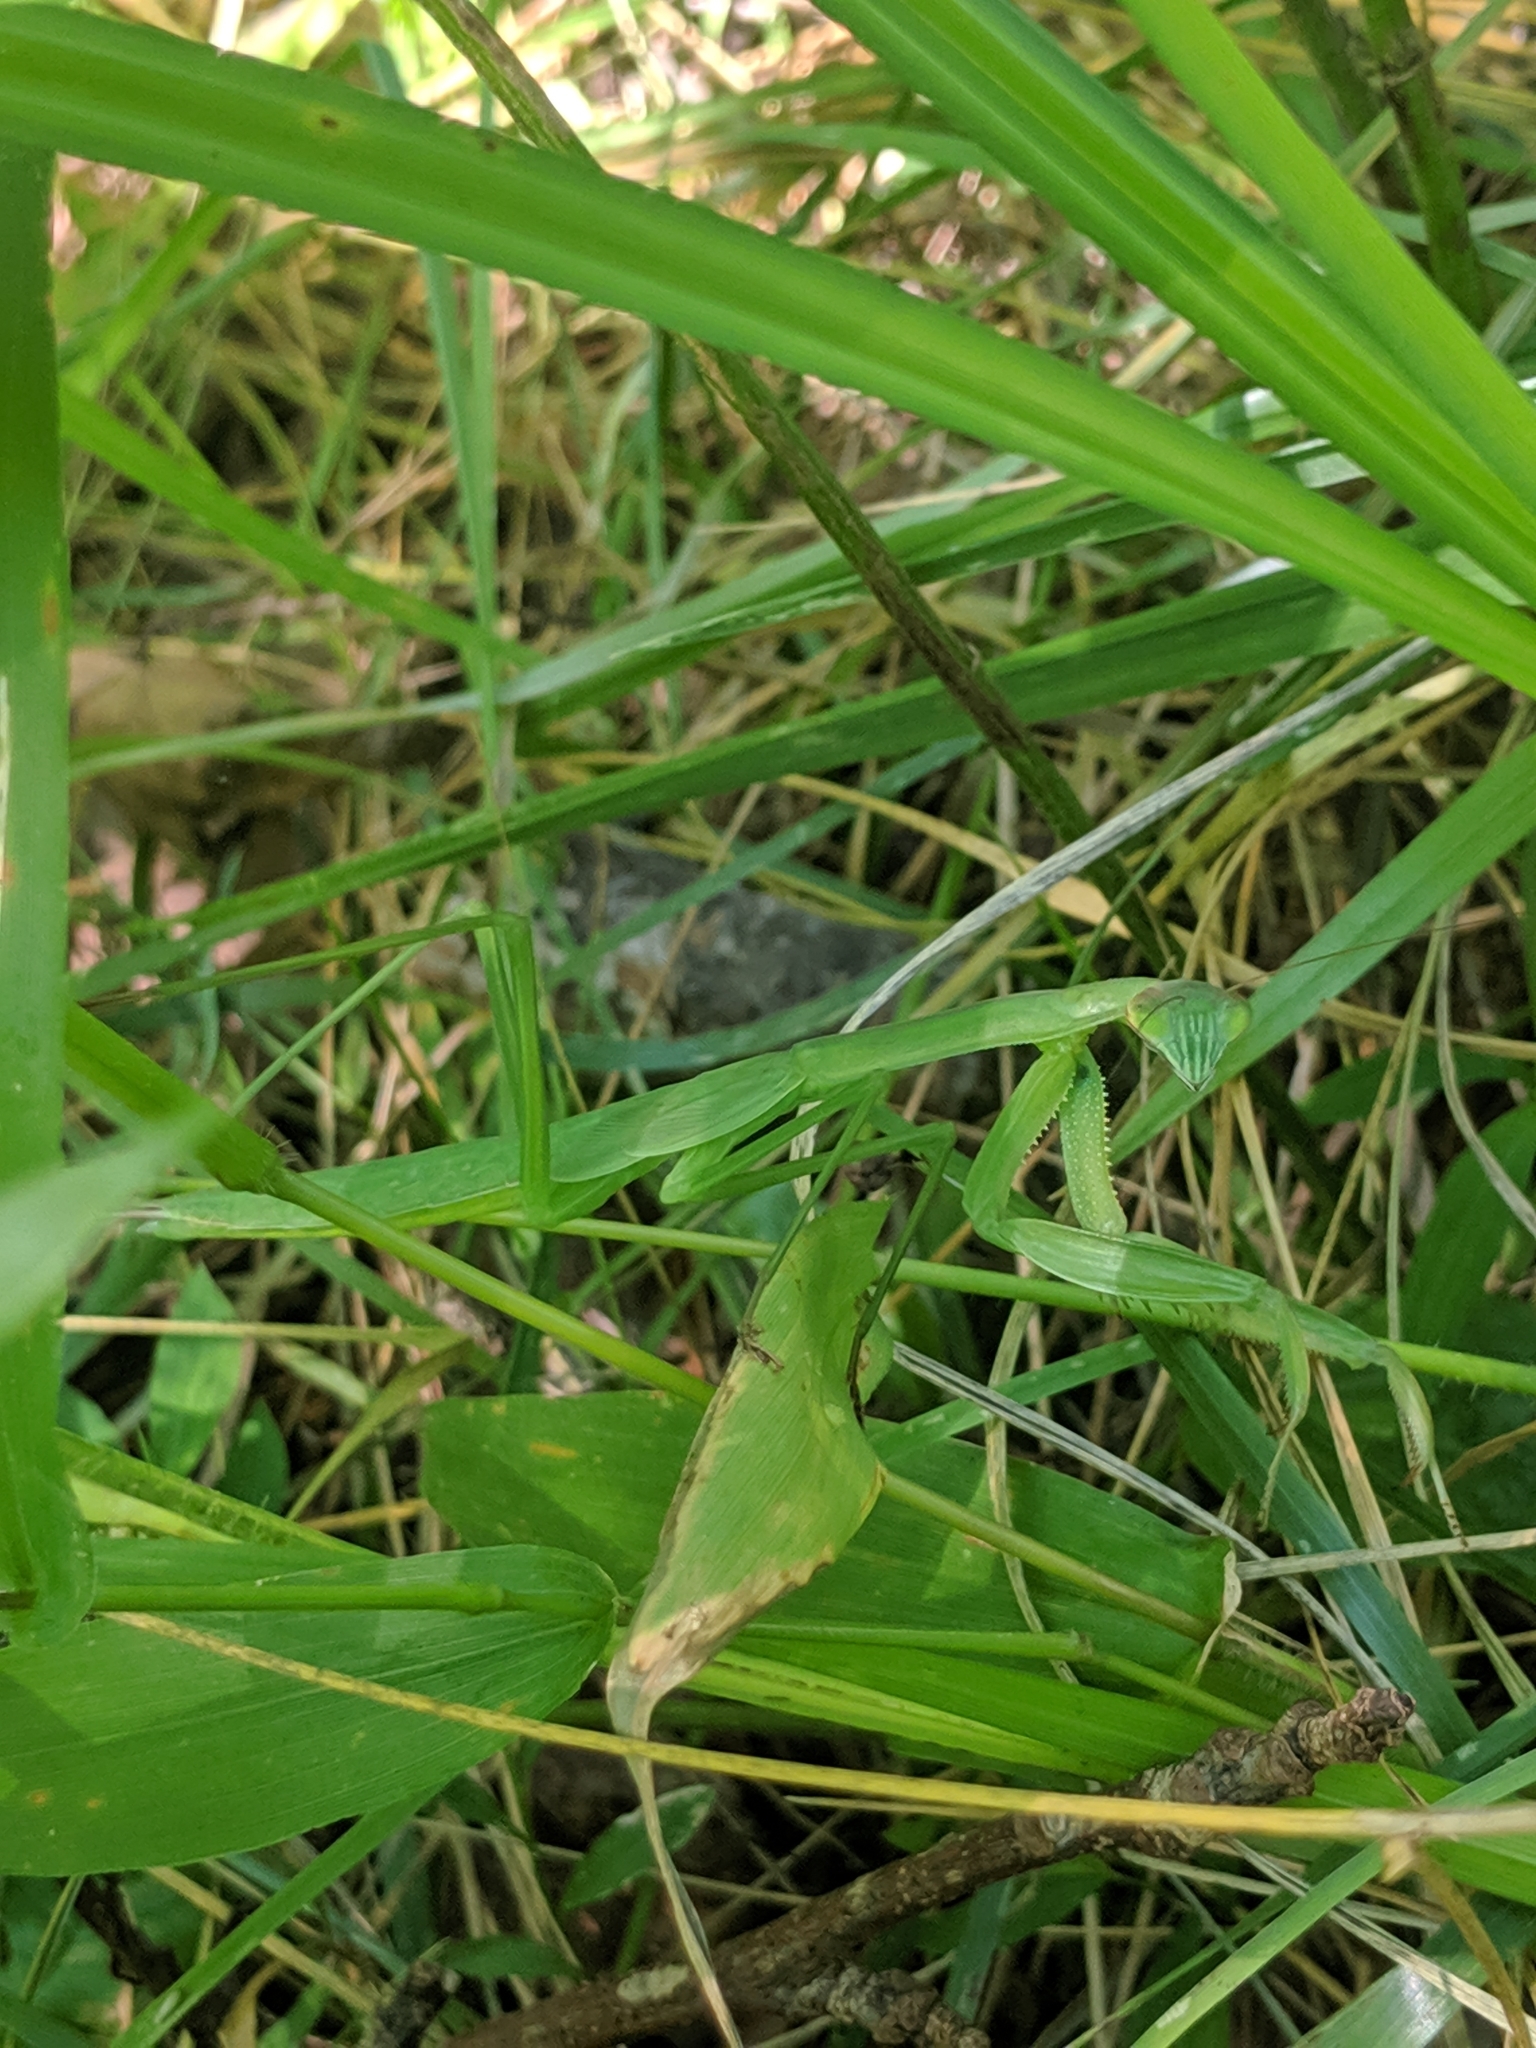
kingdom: Animalia
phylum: Arthropoda
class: Insecta
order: Mantodea
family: Mantidae
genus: Tenodera
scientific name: Tenodera sinensis
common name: Chinese mantis
